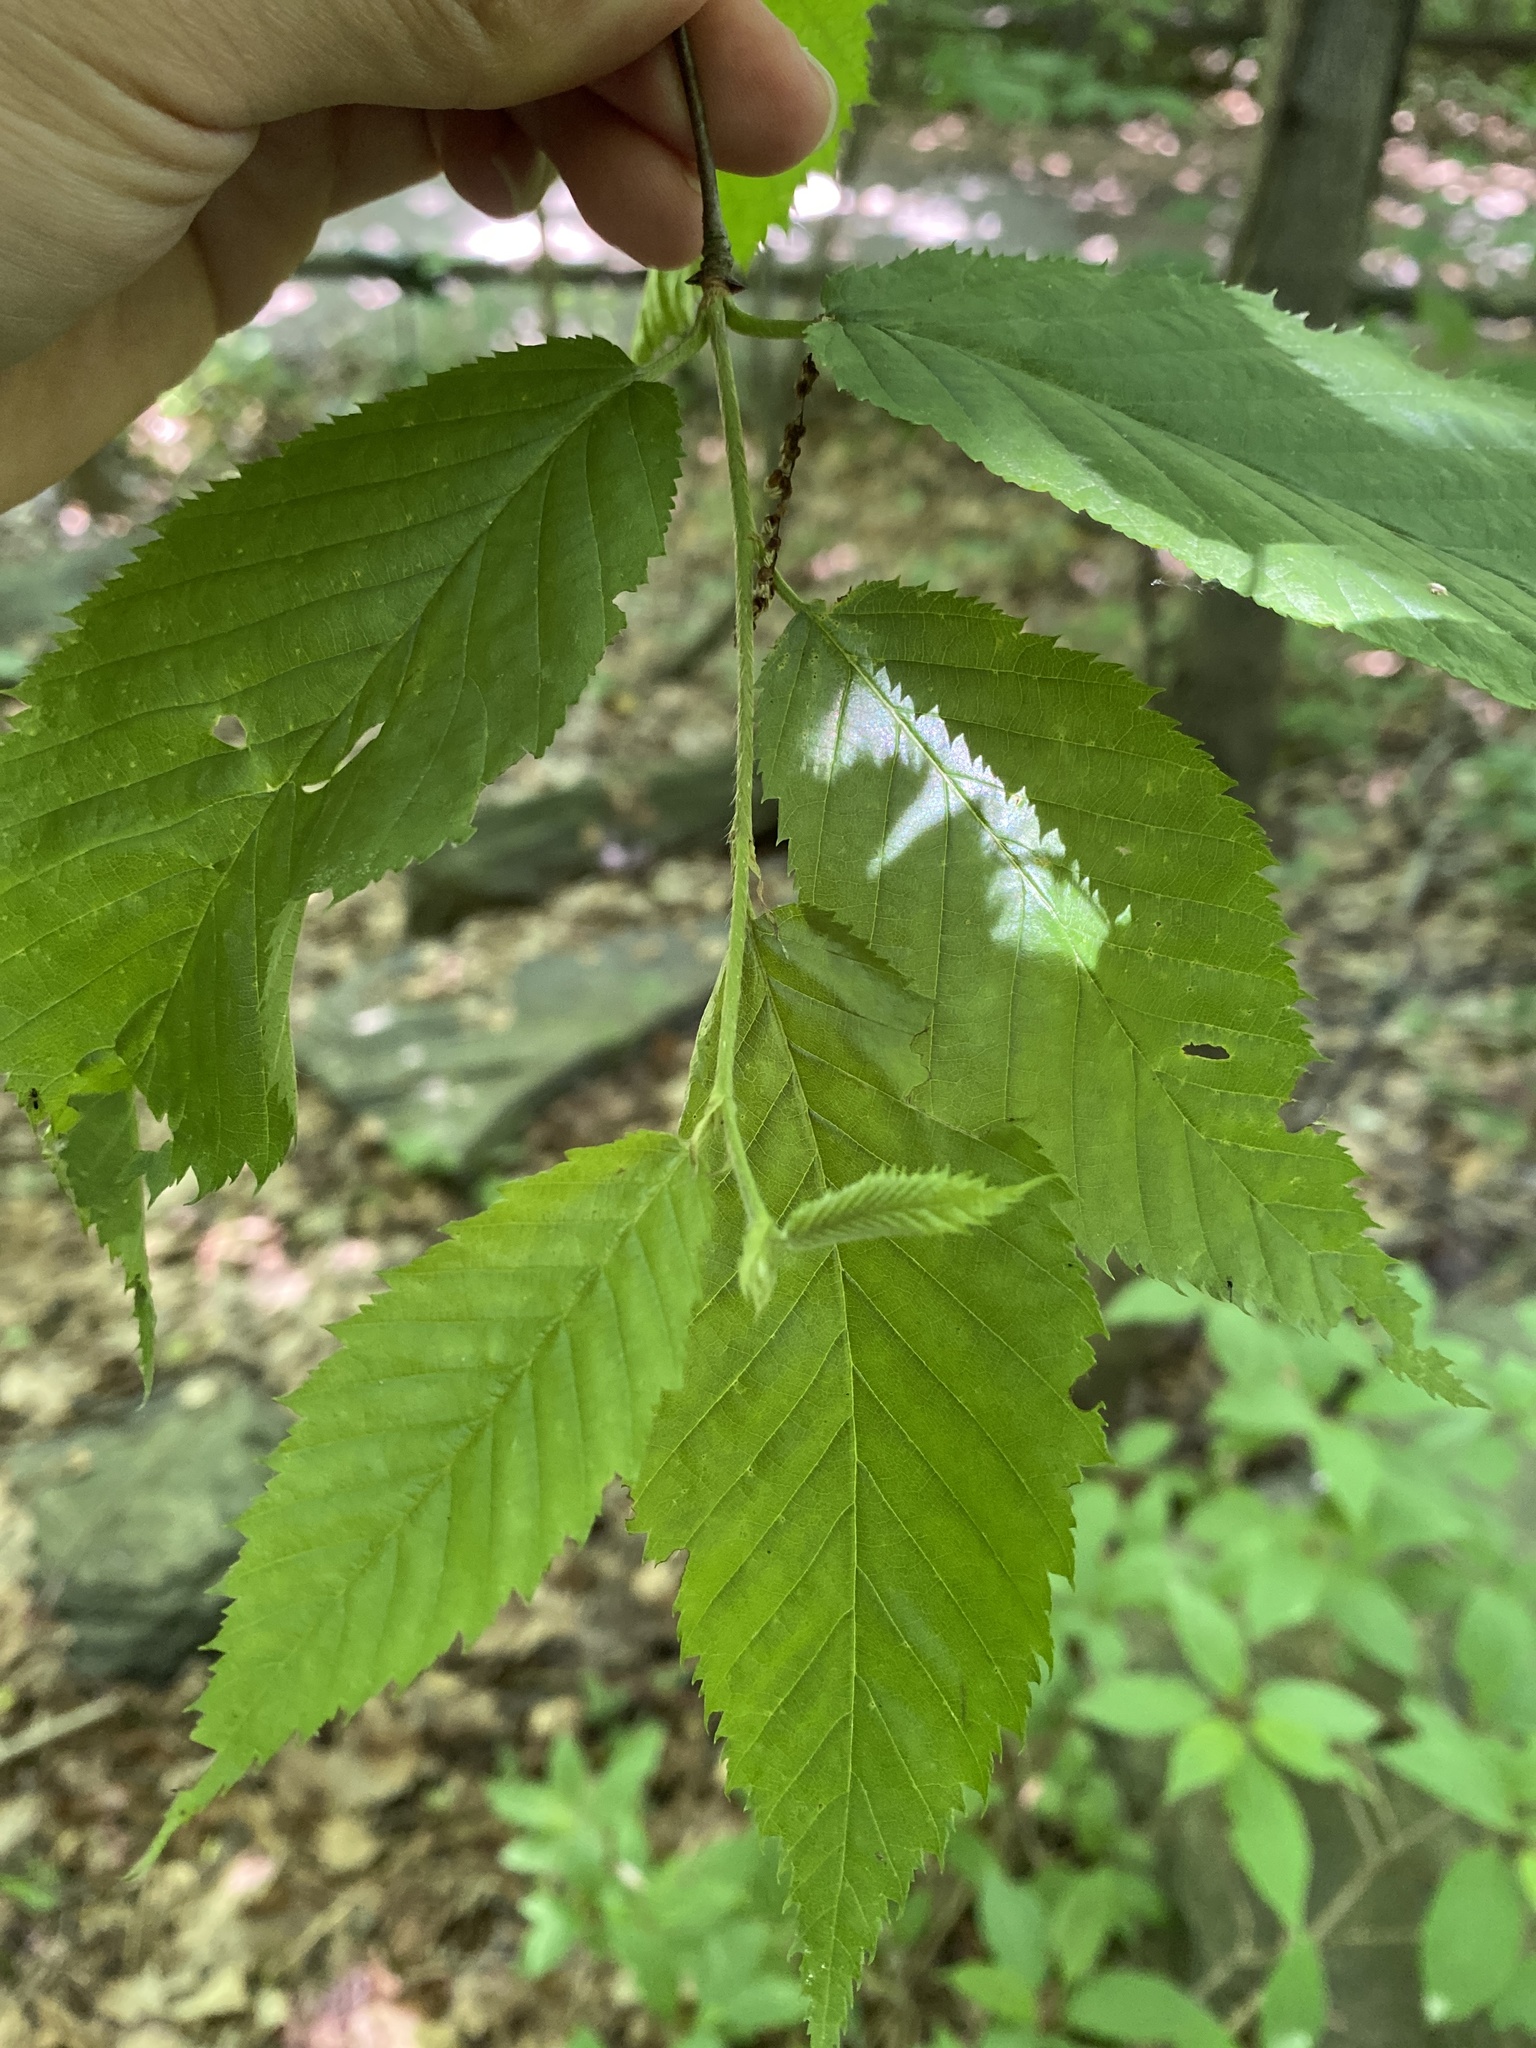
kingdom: Plantae
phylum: Tracheophyta
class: Magnoliopsida
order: Fagales
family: Betulaceae
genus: Betula
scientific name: Betula alleghaniensis
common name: Yellow birch
